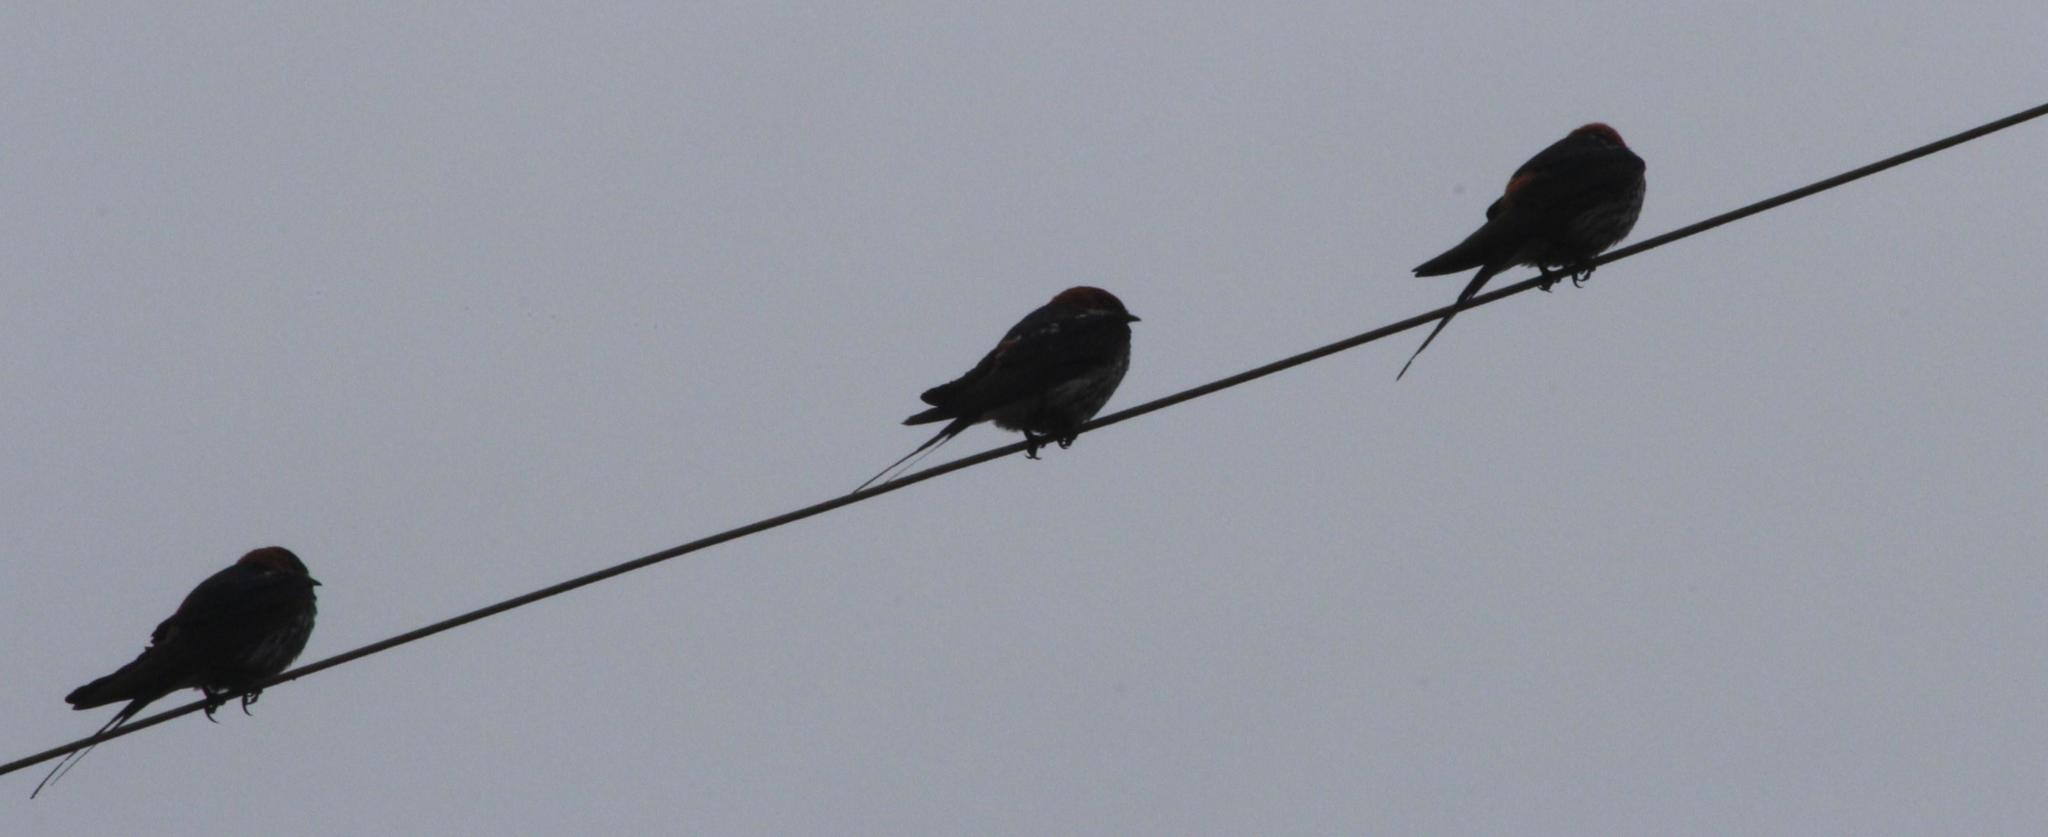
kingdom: Animalia
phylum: Chordata
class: Aves
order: Passeriformes
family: Hirundinidae
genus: Hirundo
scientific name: Hirundo rustica
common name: Barn swallow
